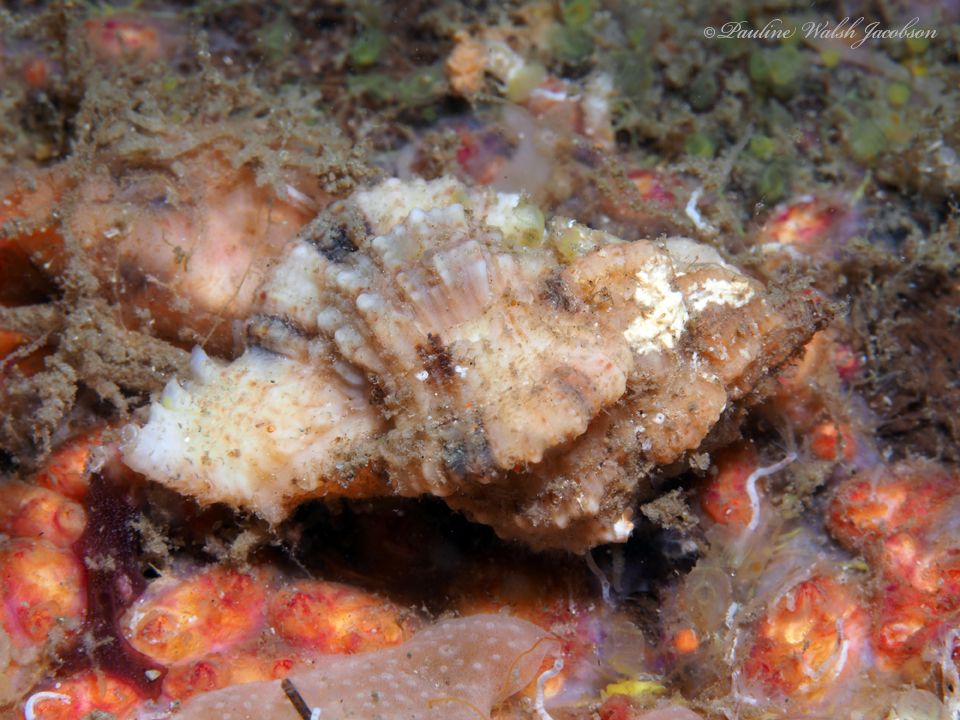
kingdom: Animalia
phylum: Mollusca
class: Gastropoda
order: Neogastropoda
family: Muricidae
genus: Phyllonotus
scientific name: Phyllonotus pomum
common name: Apple murex
